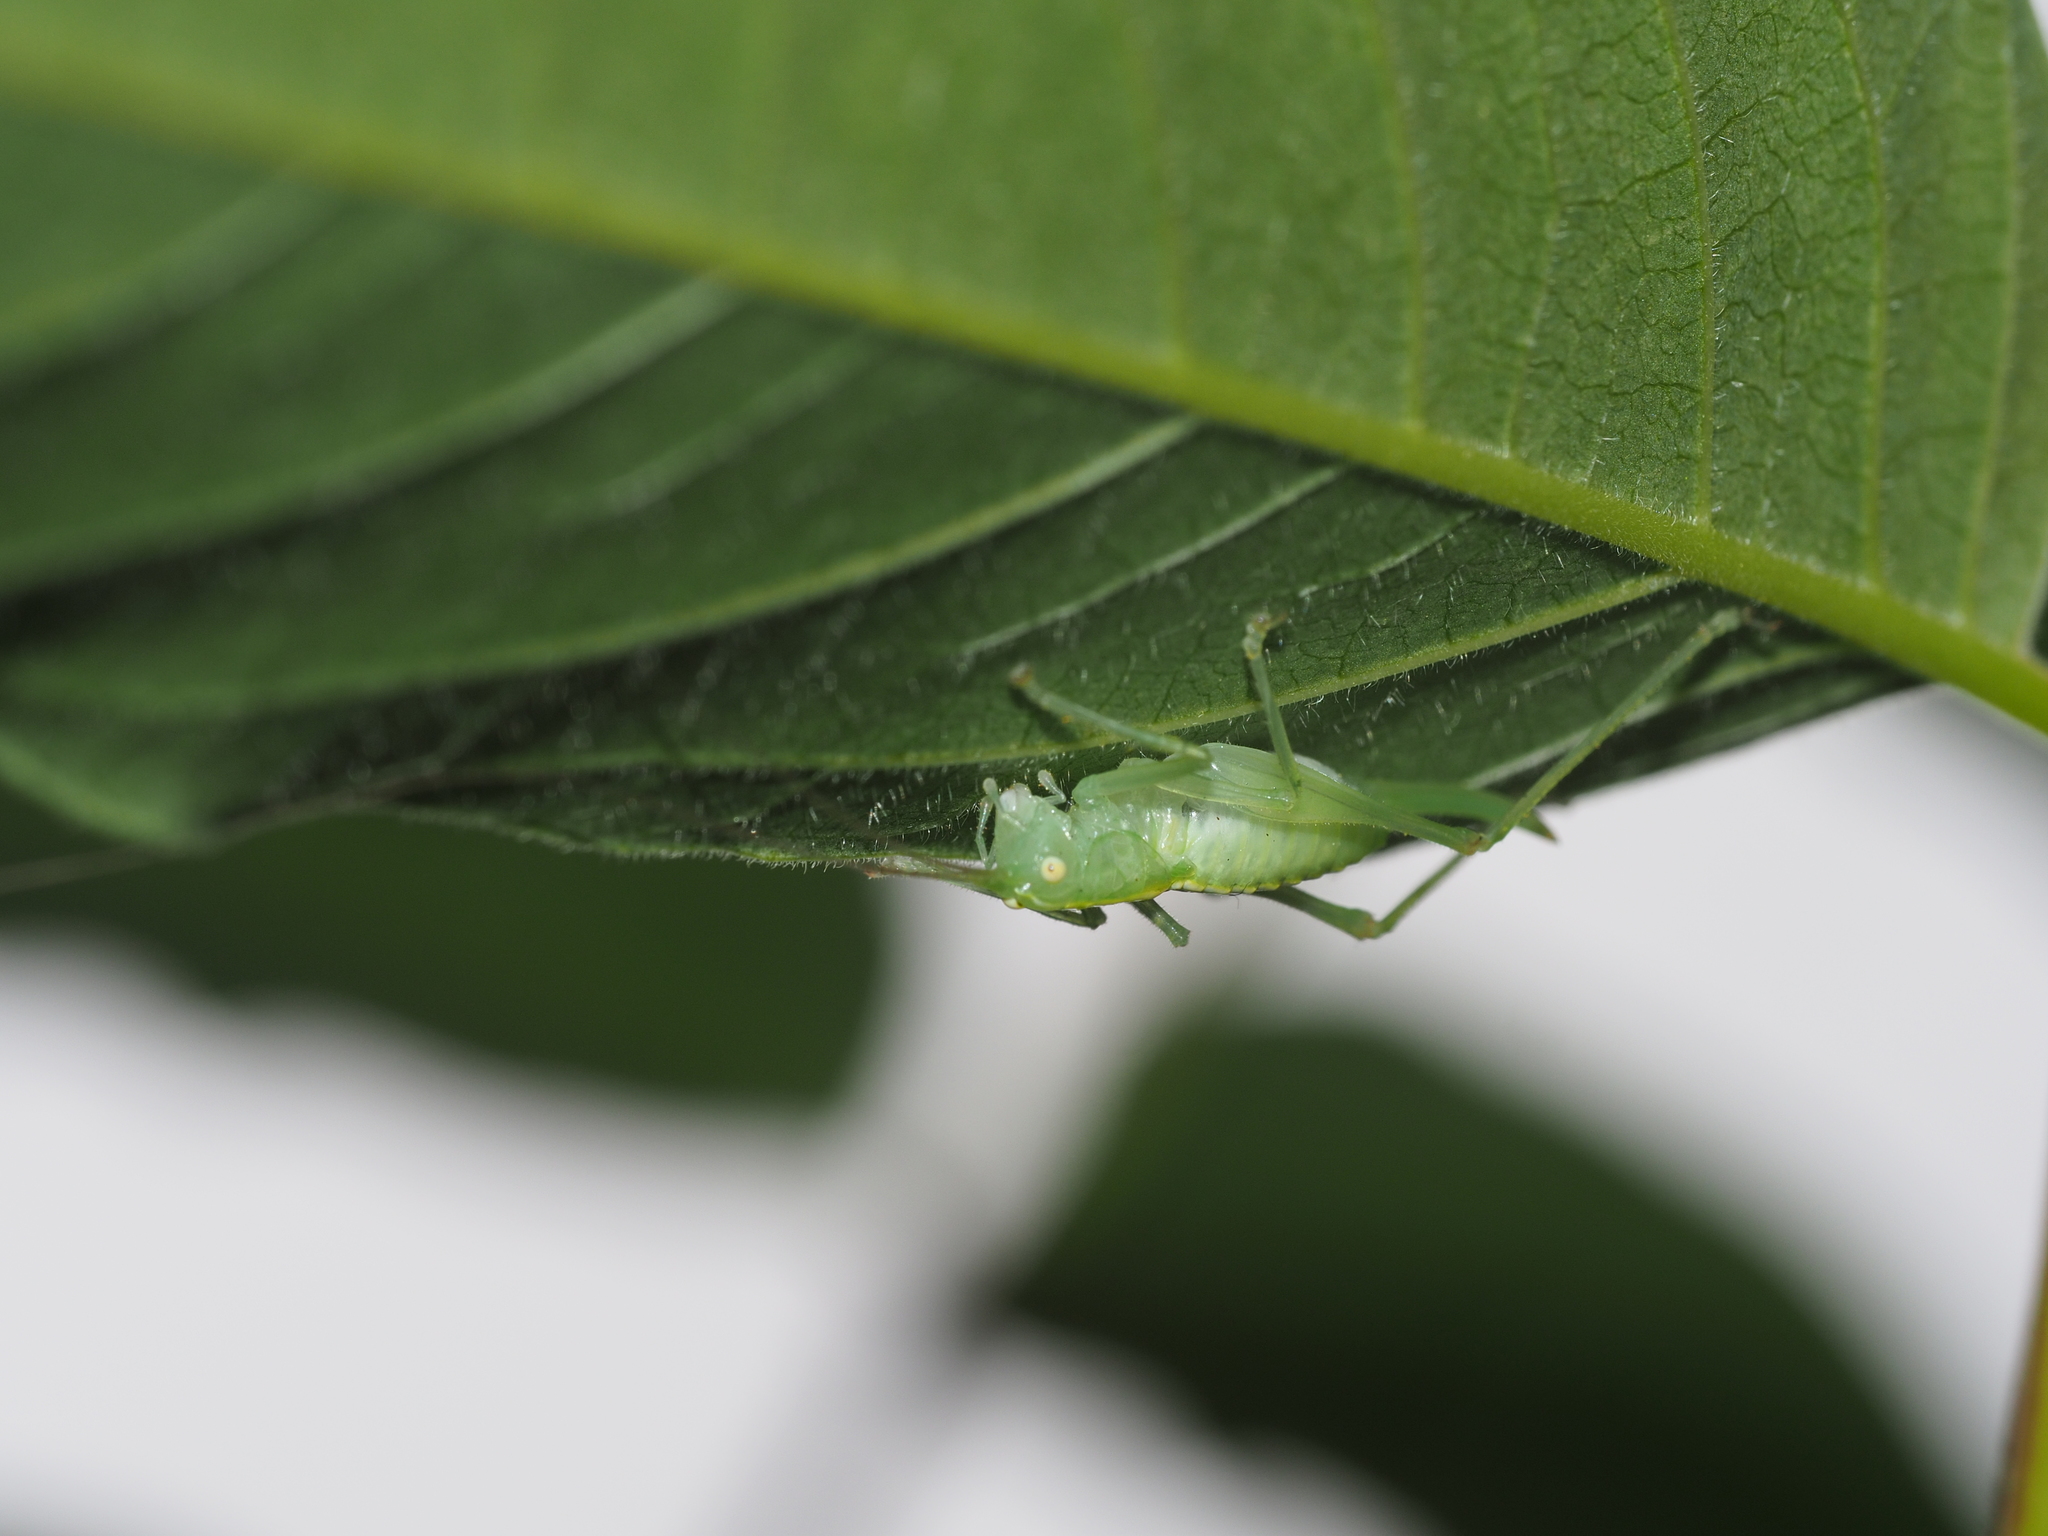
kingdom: Animalia
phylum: Arthropoda
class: Insecta
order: Orthoptera
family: Tettigoniidae
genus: Meconema
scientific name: Meconema meridionale
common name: Southern oak bush-cricket
